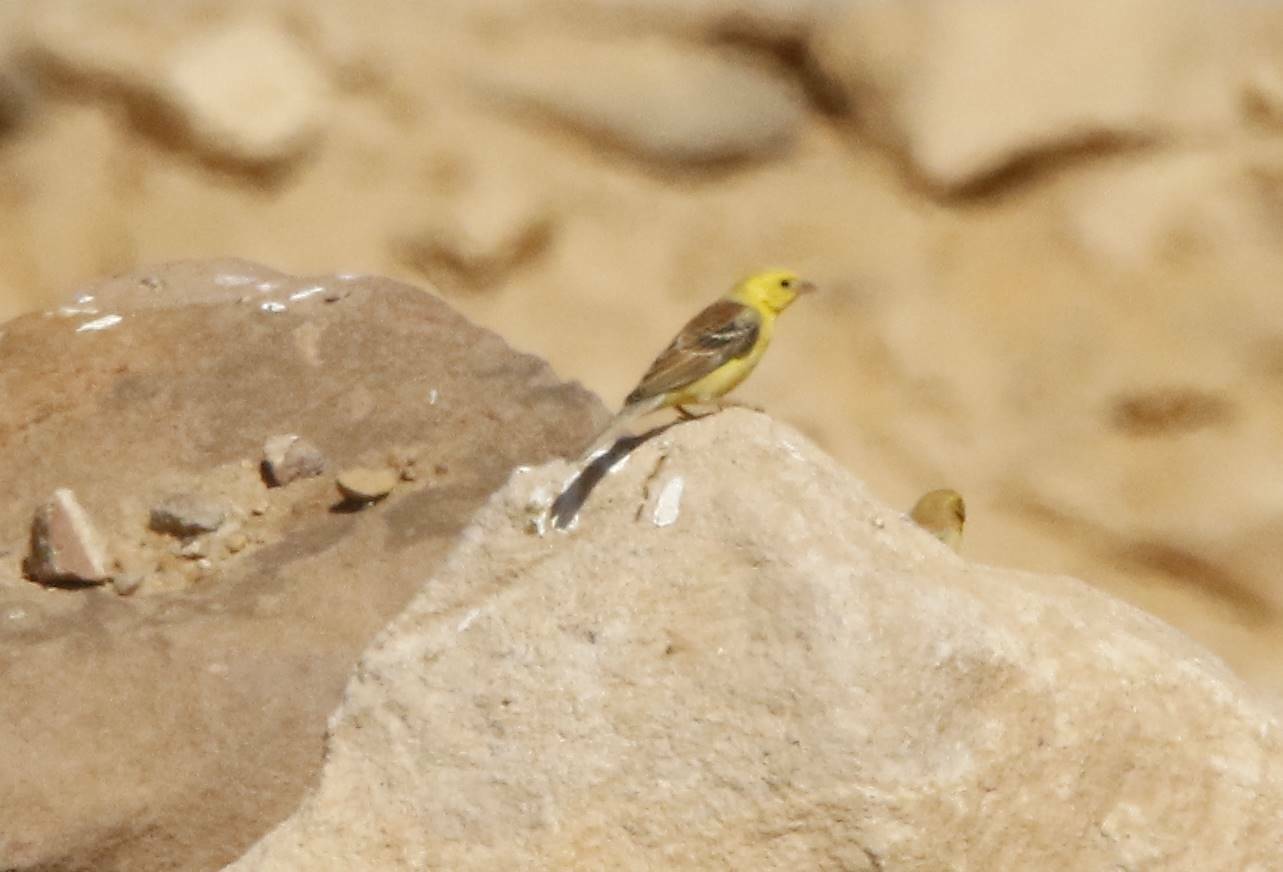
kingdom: Animalia
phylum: Chordata
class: Aves
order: Passeriformes
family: Passeridae
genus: Passer
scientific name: Passer luteus
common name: Sudan golden sparrow
